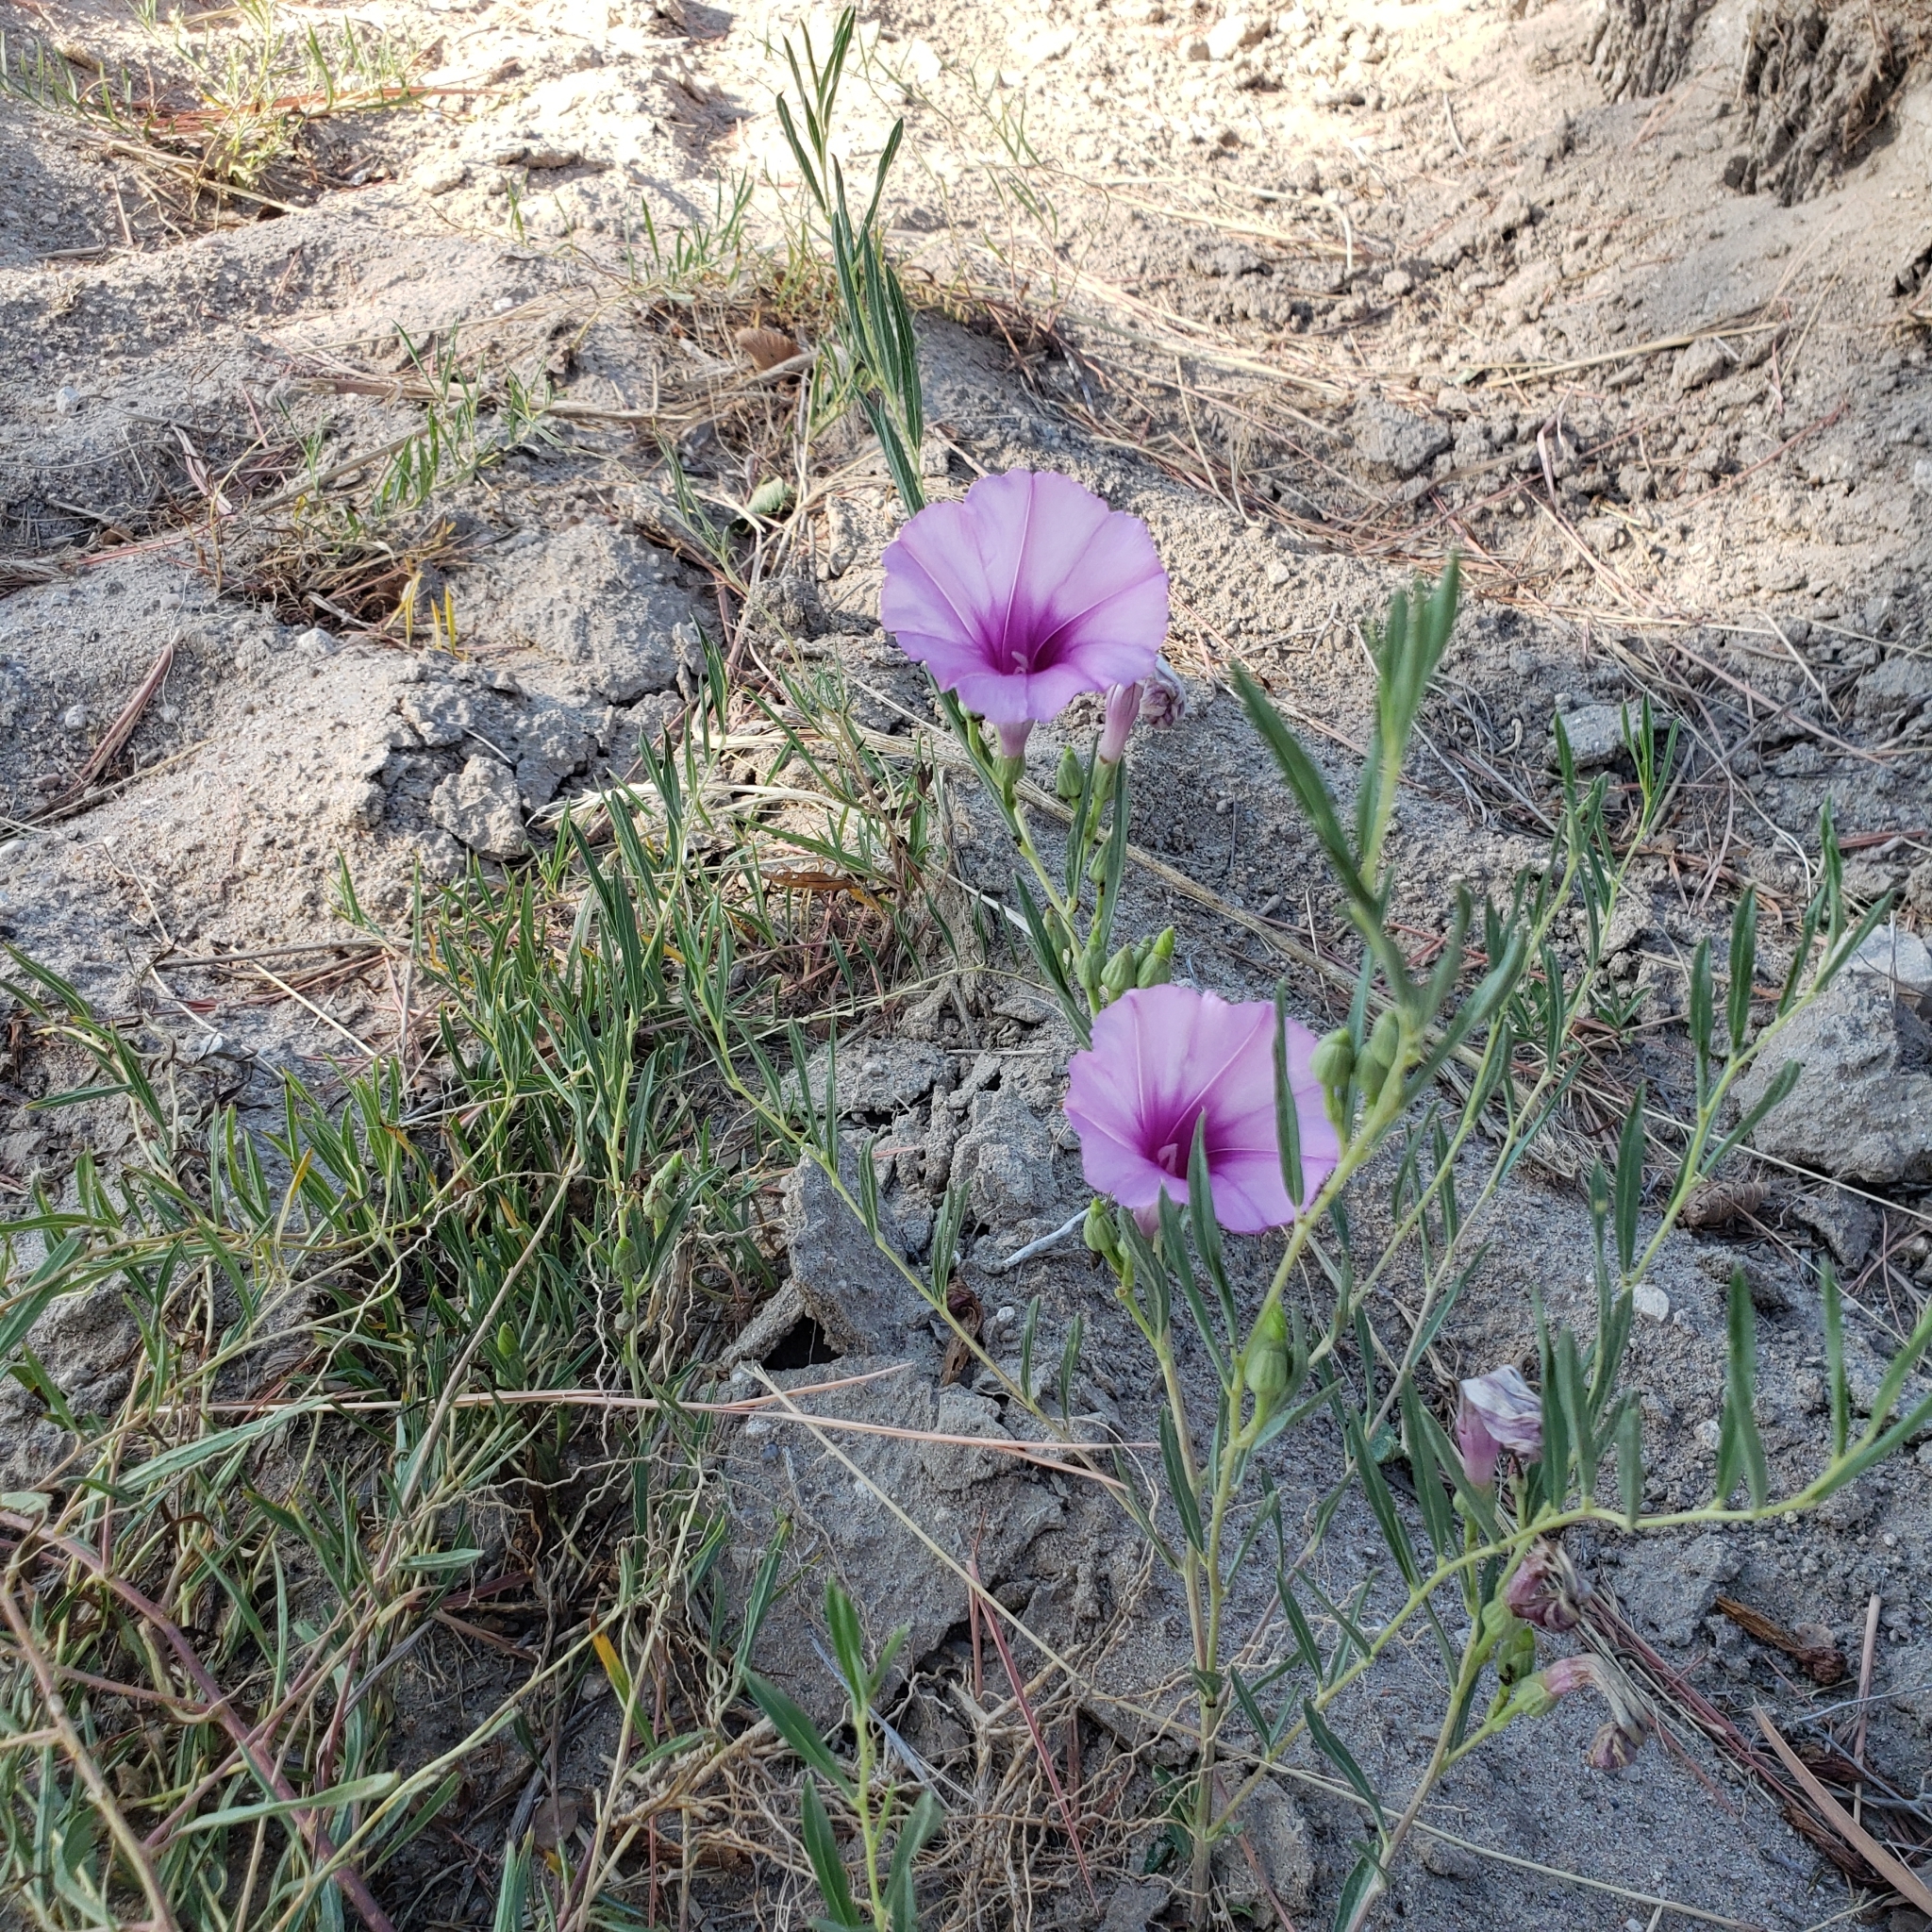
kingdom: Plantae
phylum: Tracheophyta
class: Magnoliopsida
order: Solanales
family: Convolvulaceae
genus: Ipomoea
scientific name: Ipomoea leptophylla
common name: Bush moonflower
